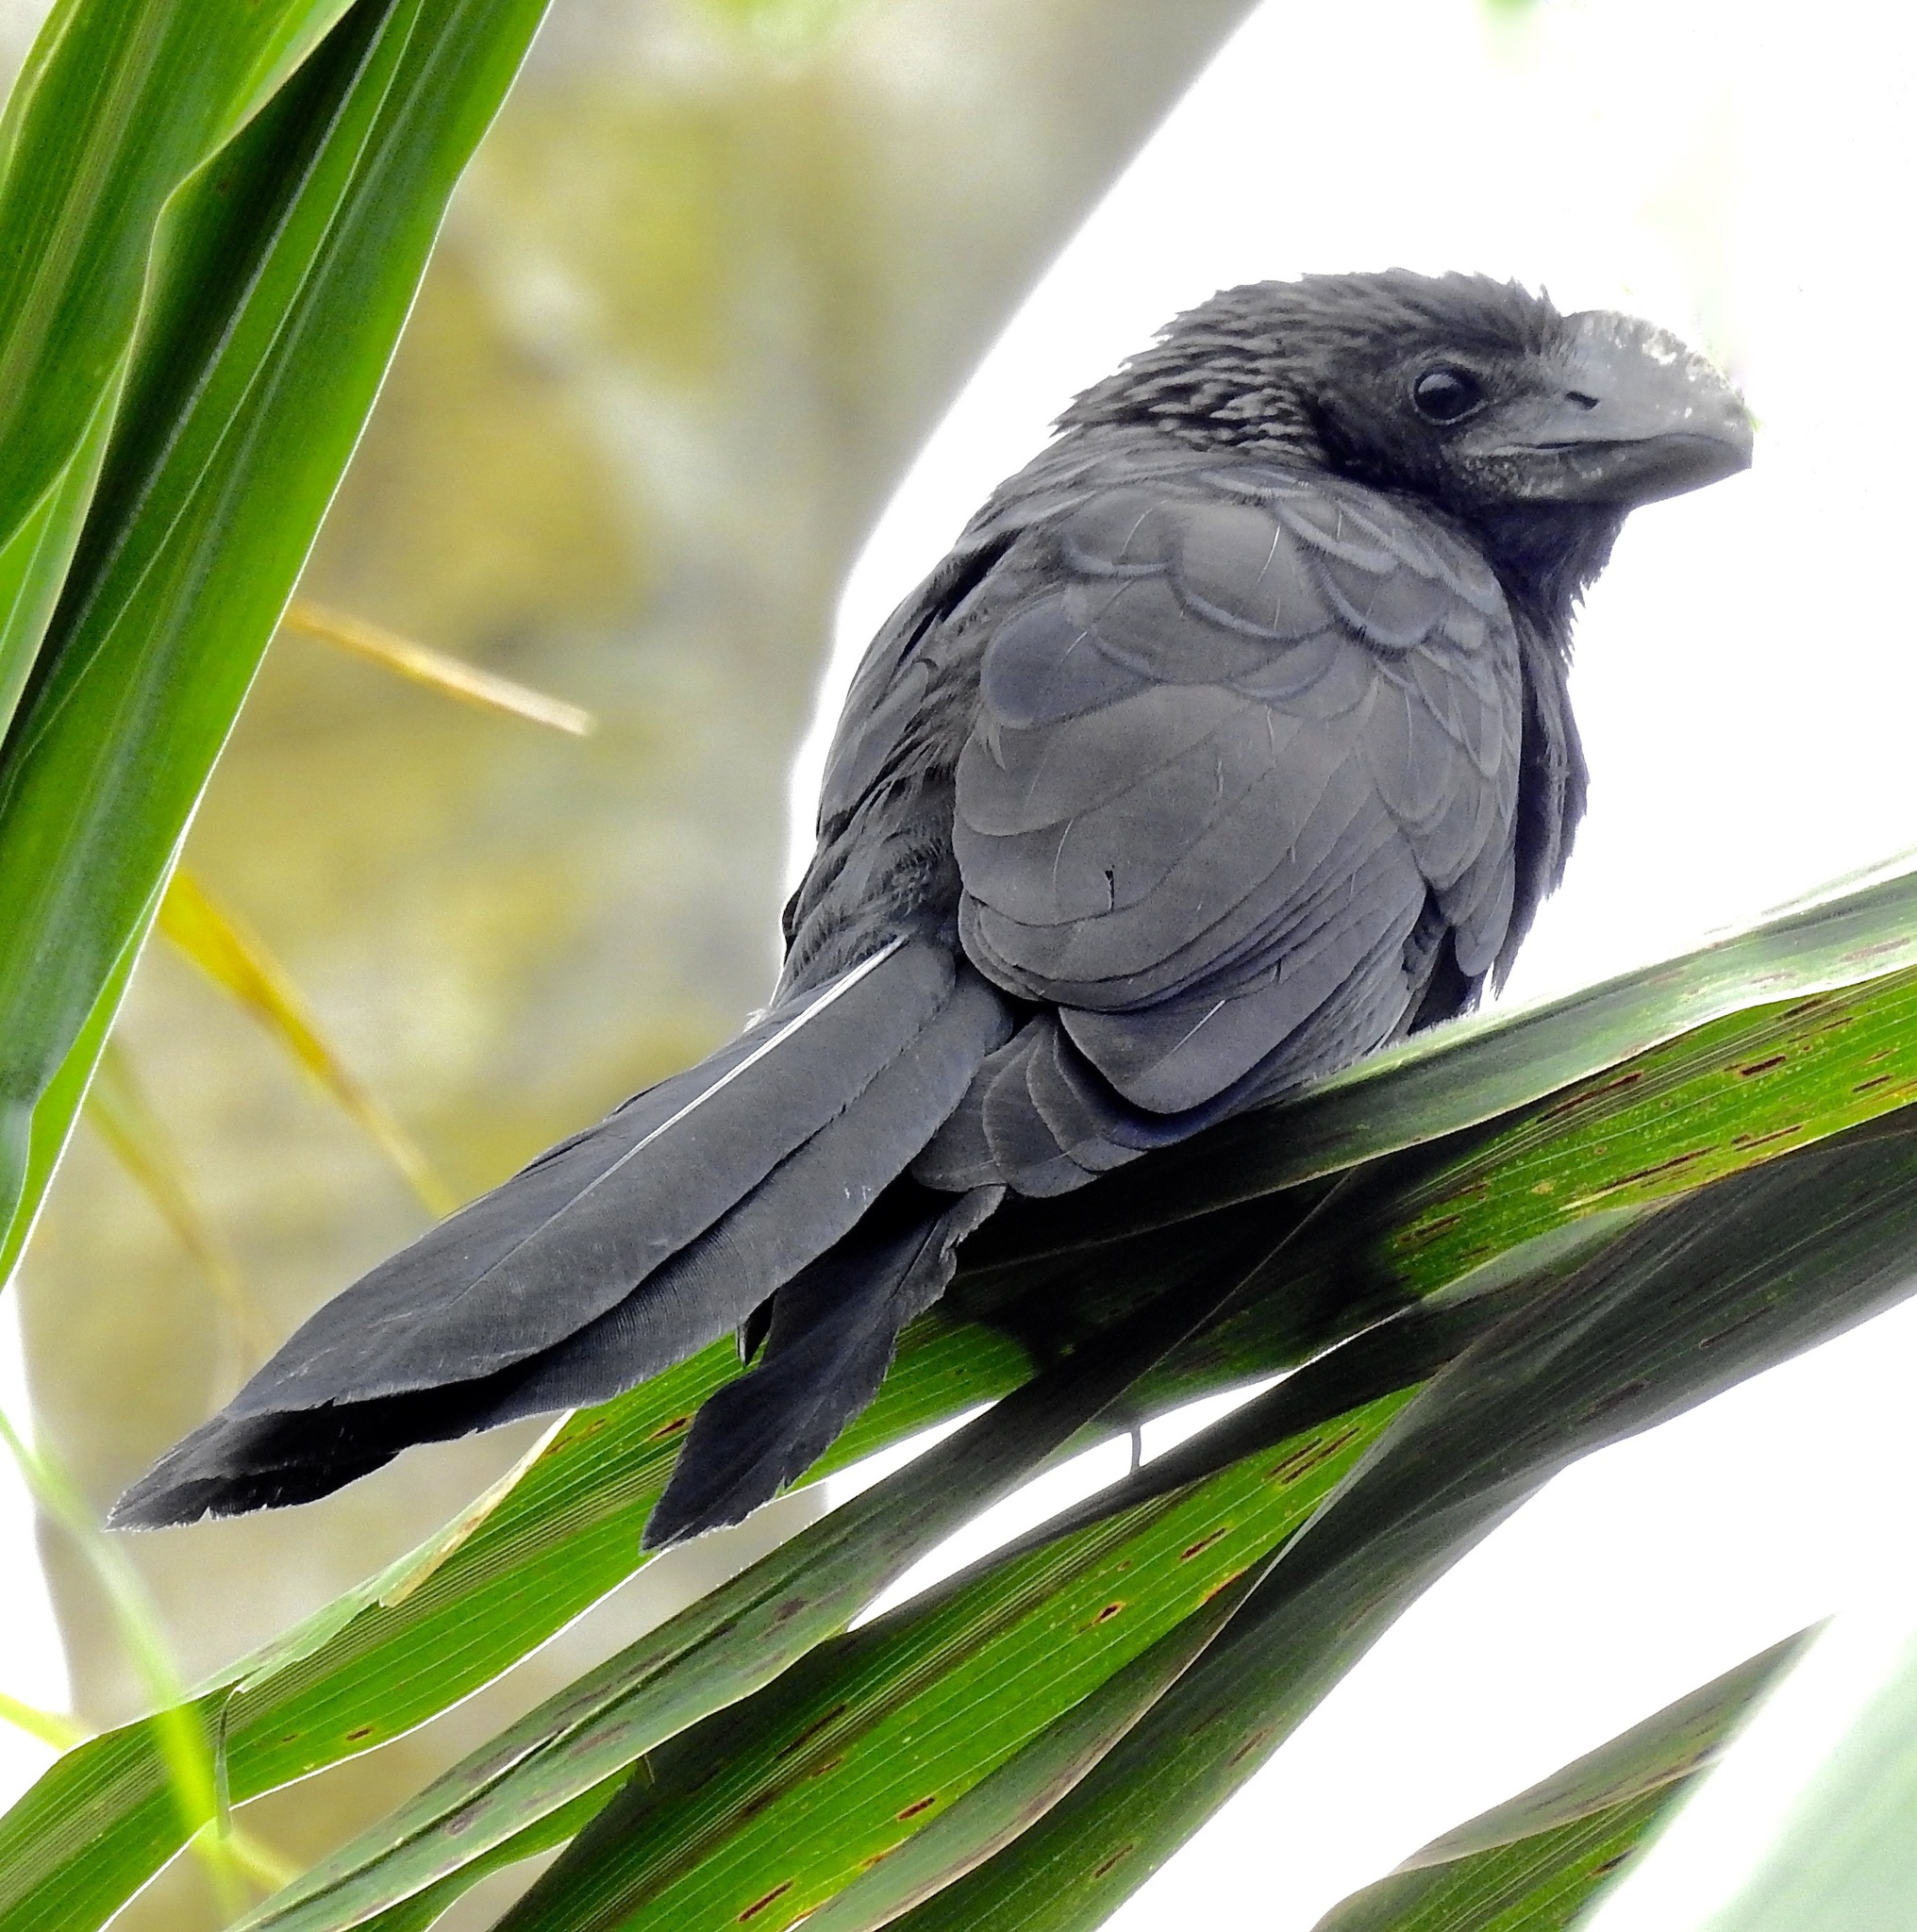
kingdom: Animalia
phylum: Chordata
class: Aves
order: Cuculiformes
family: Cuculidae
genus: Crotophaga
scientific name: Crotophaga ani
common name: Smooth-billed ani
